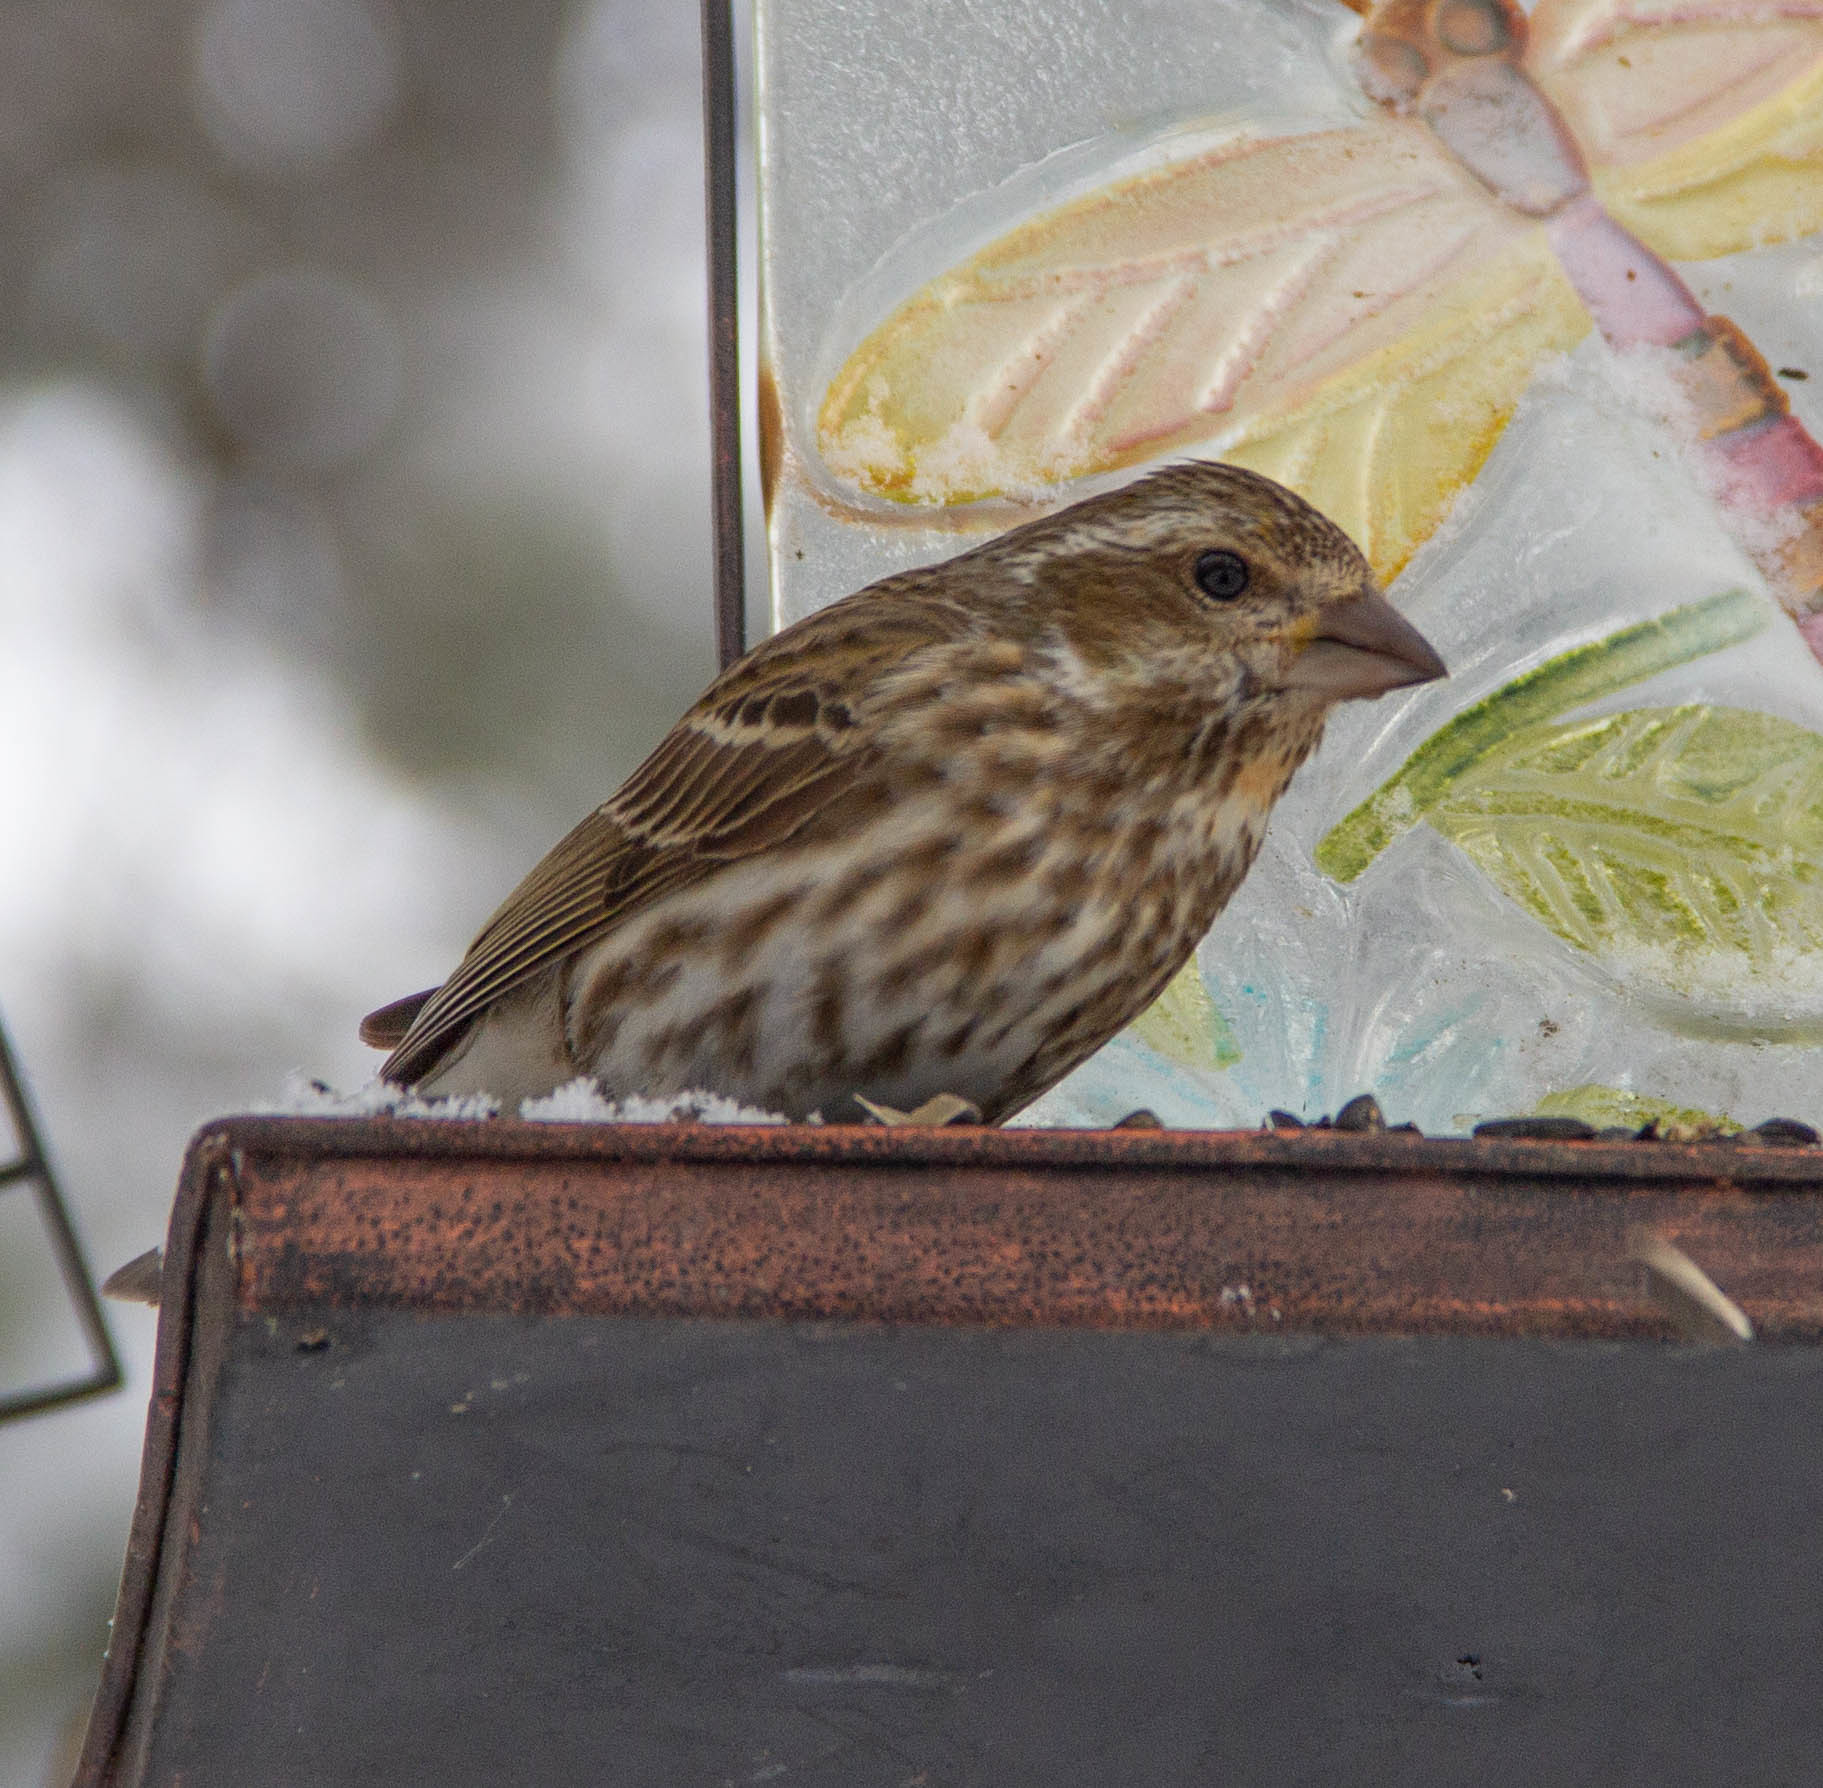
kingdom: Animalia
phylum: Chordata
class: Aves
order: Passeriformes
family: Fringillidae
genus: Haemorhous
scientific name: Haemorhous purpureus
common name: Purple finch
